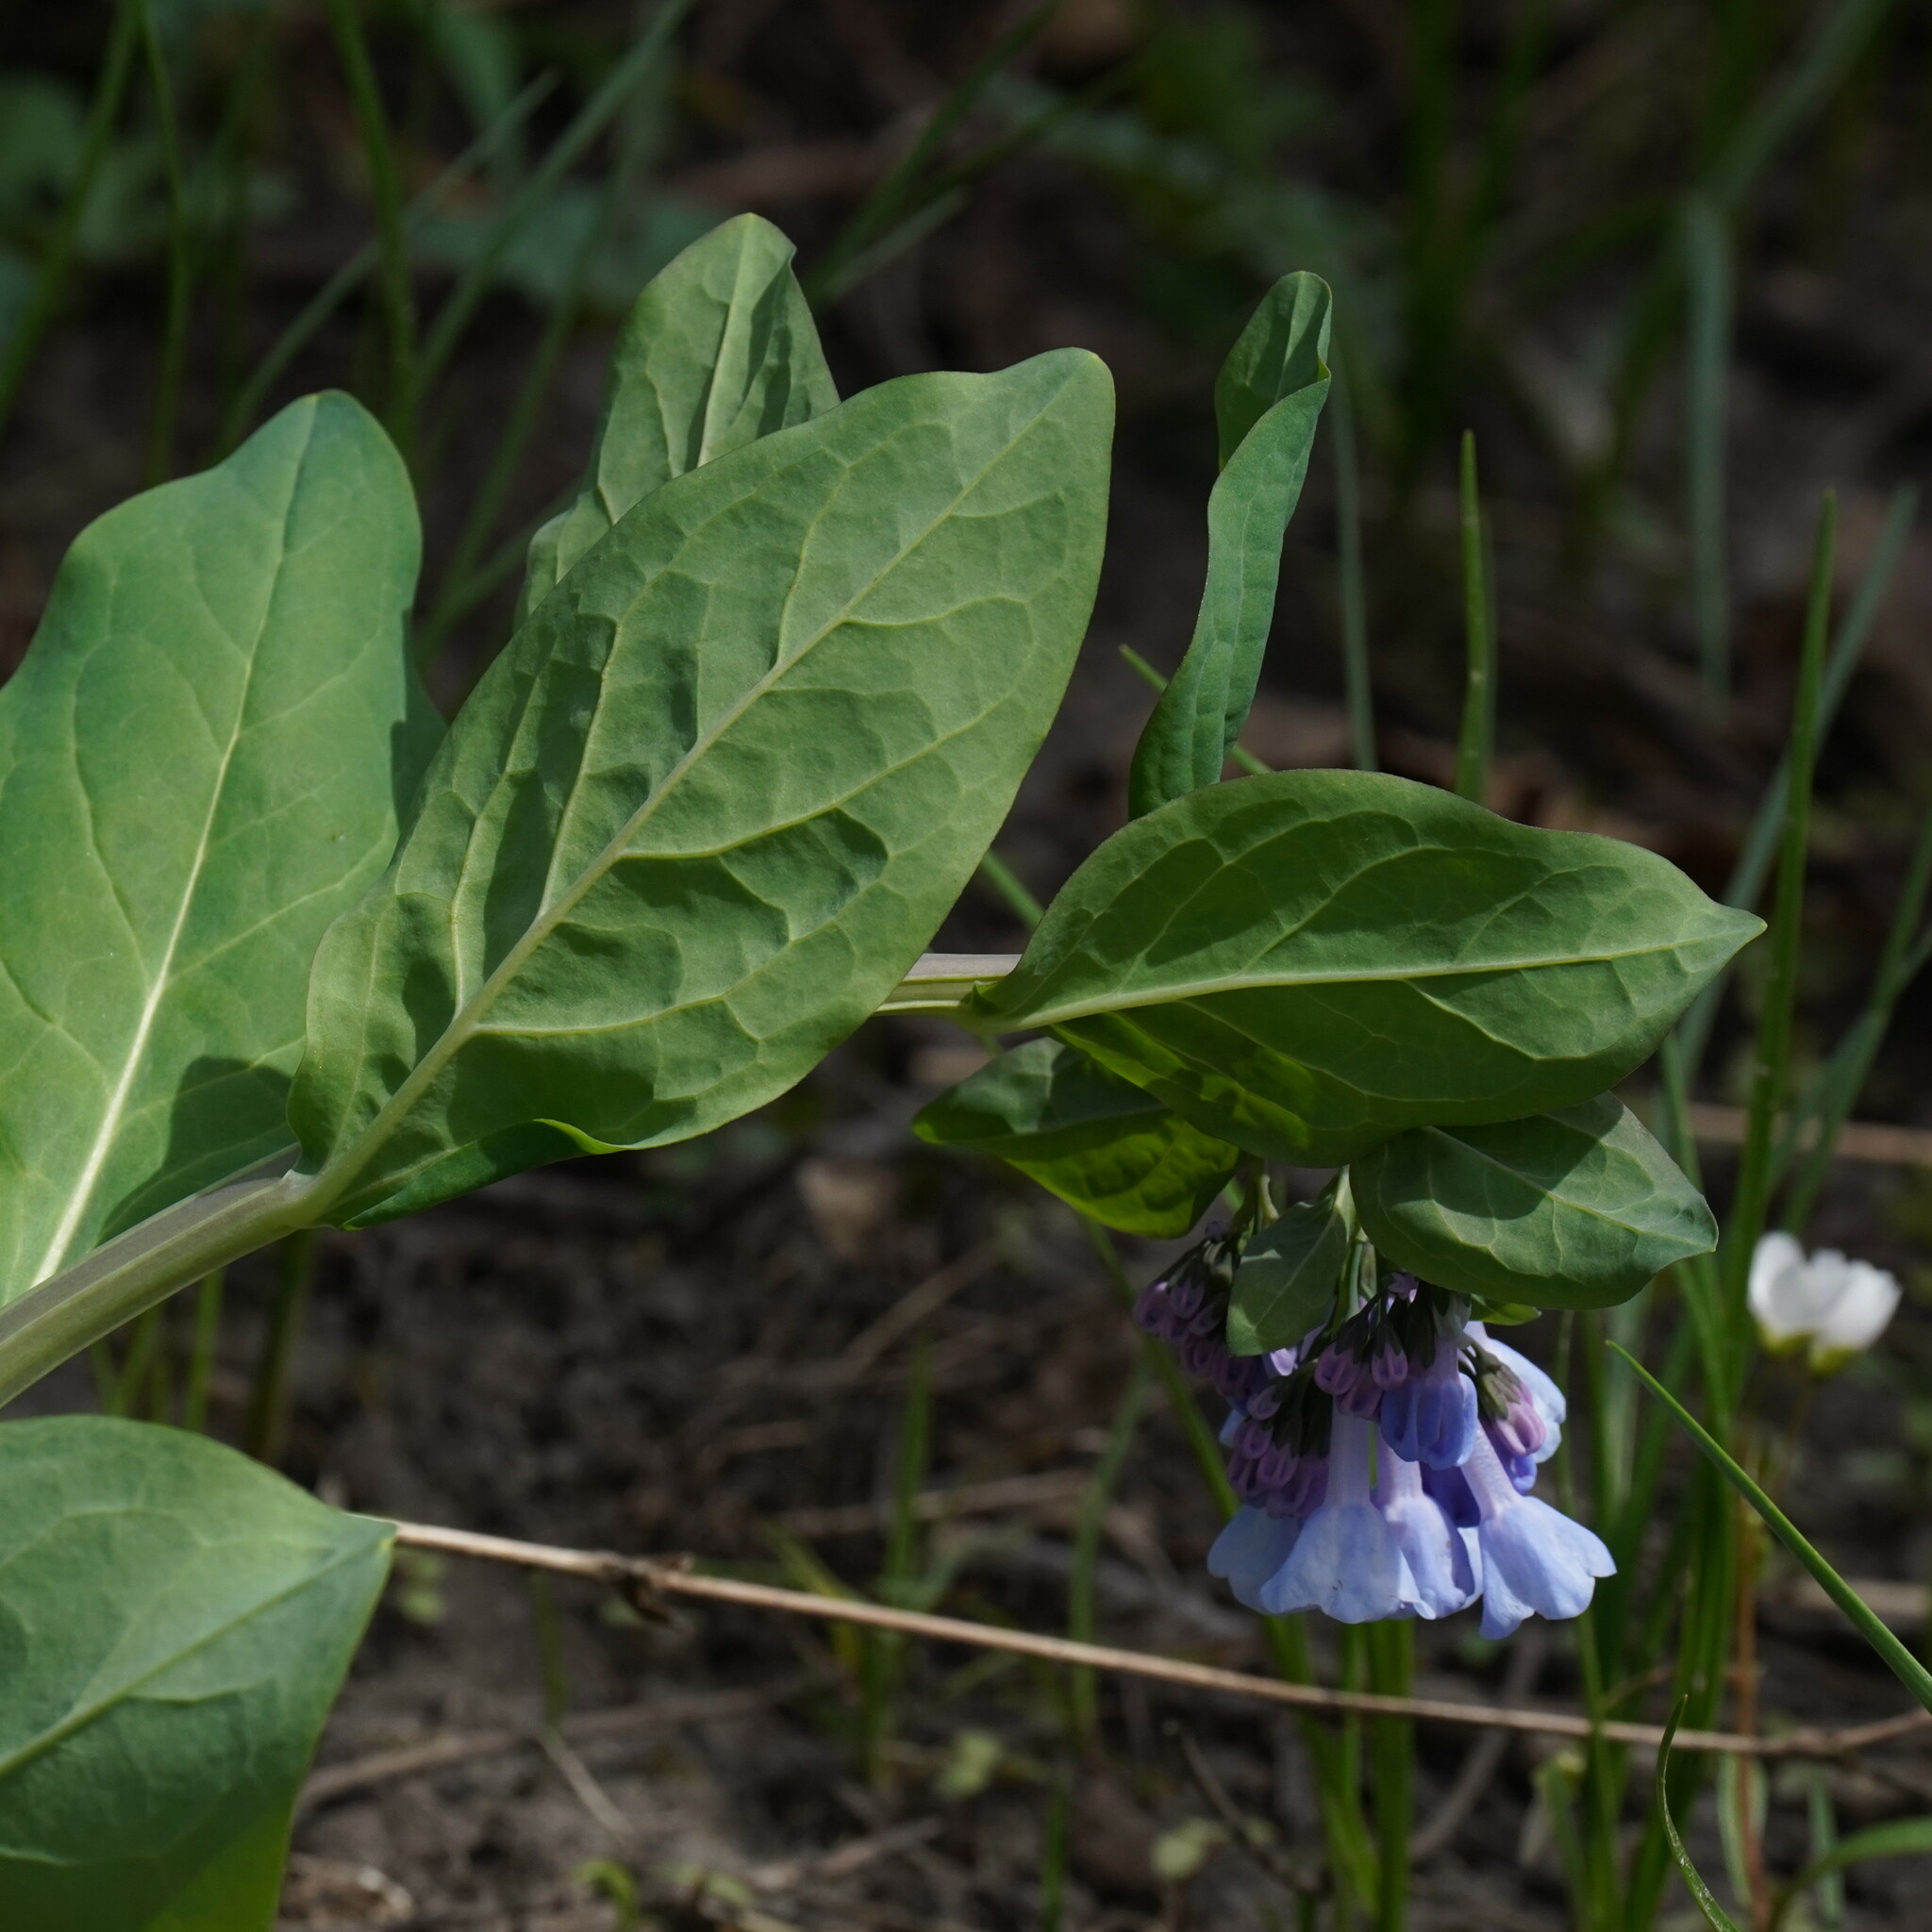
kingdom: Plantae
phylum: Tracheophyta
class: Magnoliopsida
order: Boraginales
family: Boraginaceae
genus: Mertensia
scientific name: Mertensia virginica
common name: Virginia bluebells
